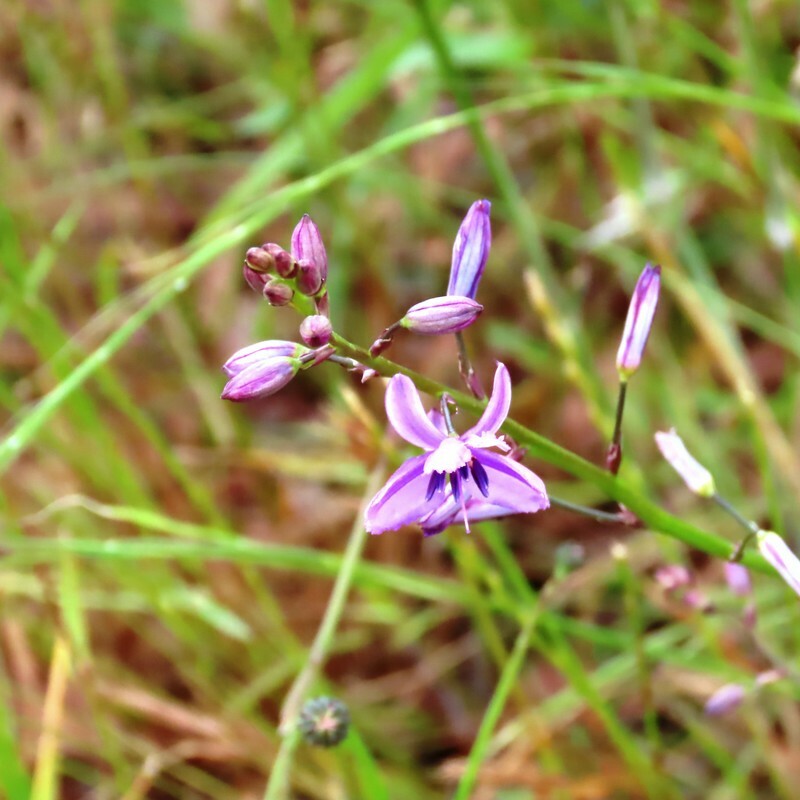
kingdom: Plantae
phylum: Tracheophyta
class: Liliopsida
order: Asparagales
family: Asparagaceae
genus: Arthropodium
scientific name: Arthropodium strictum
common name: Chocolate-lily
